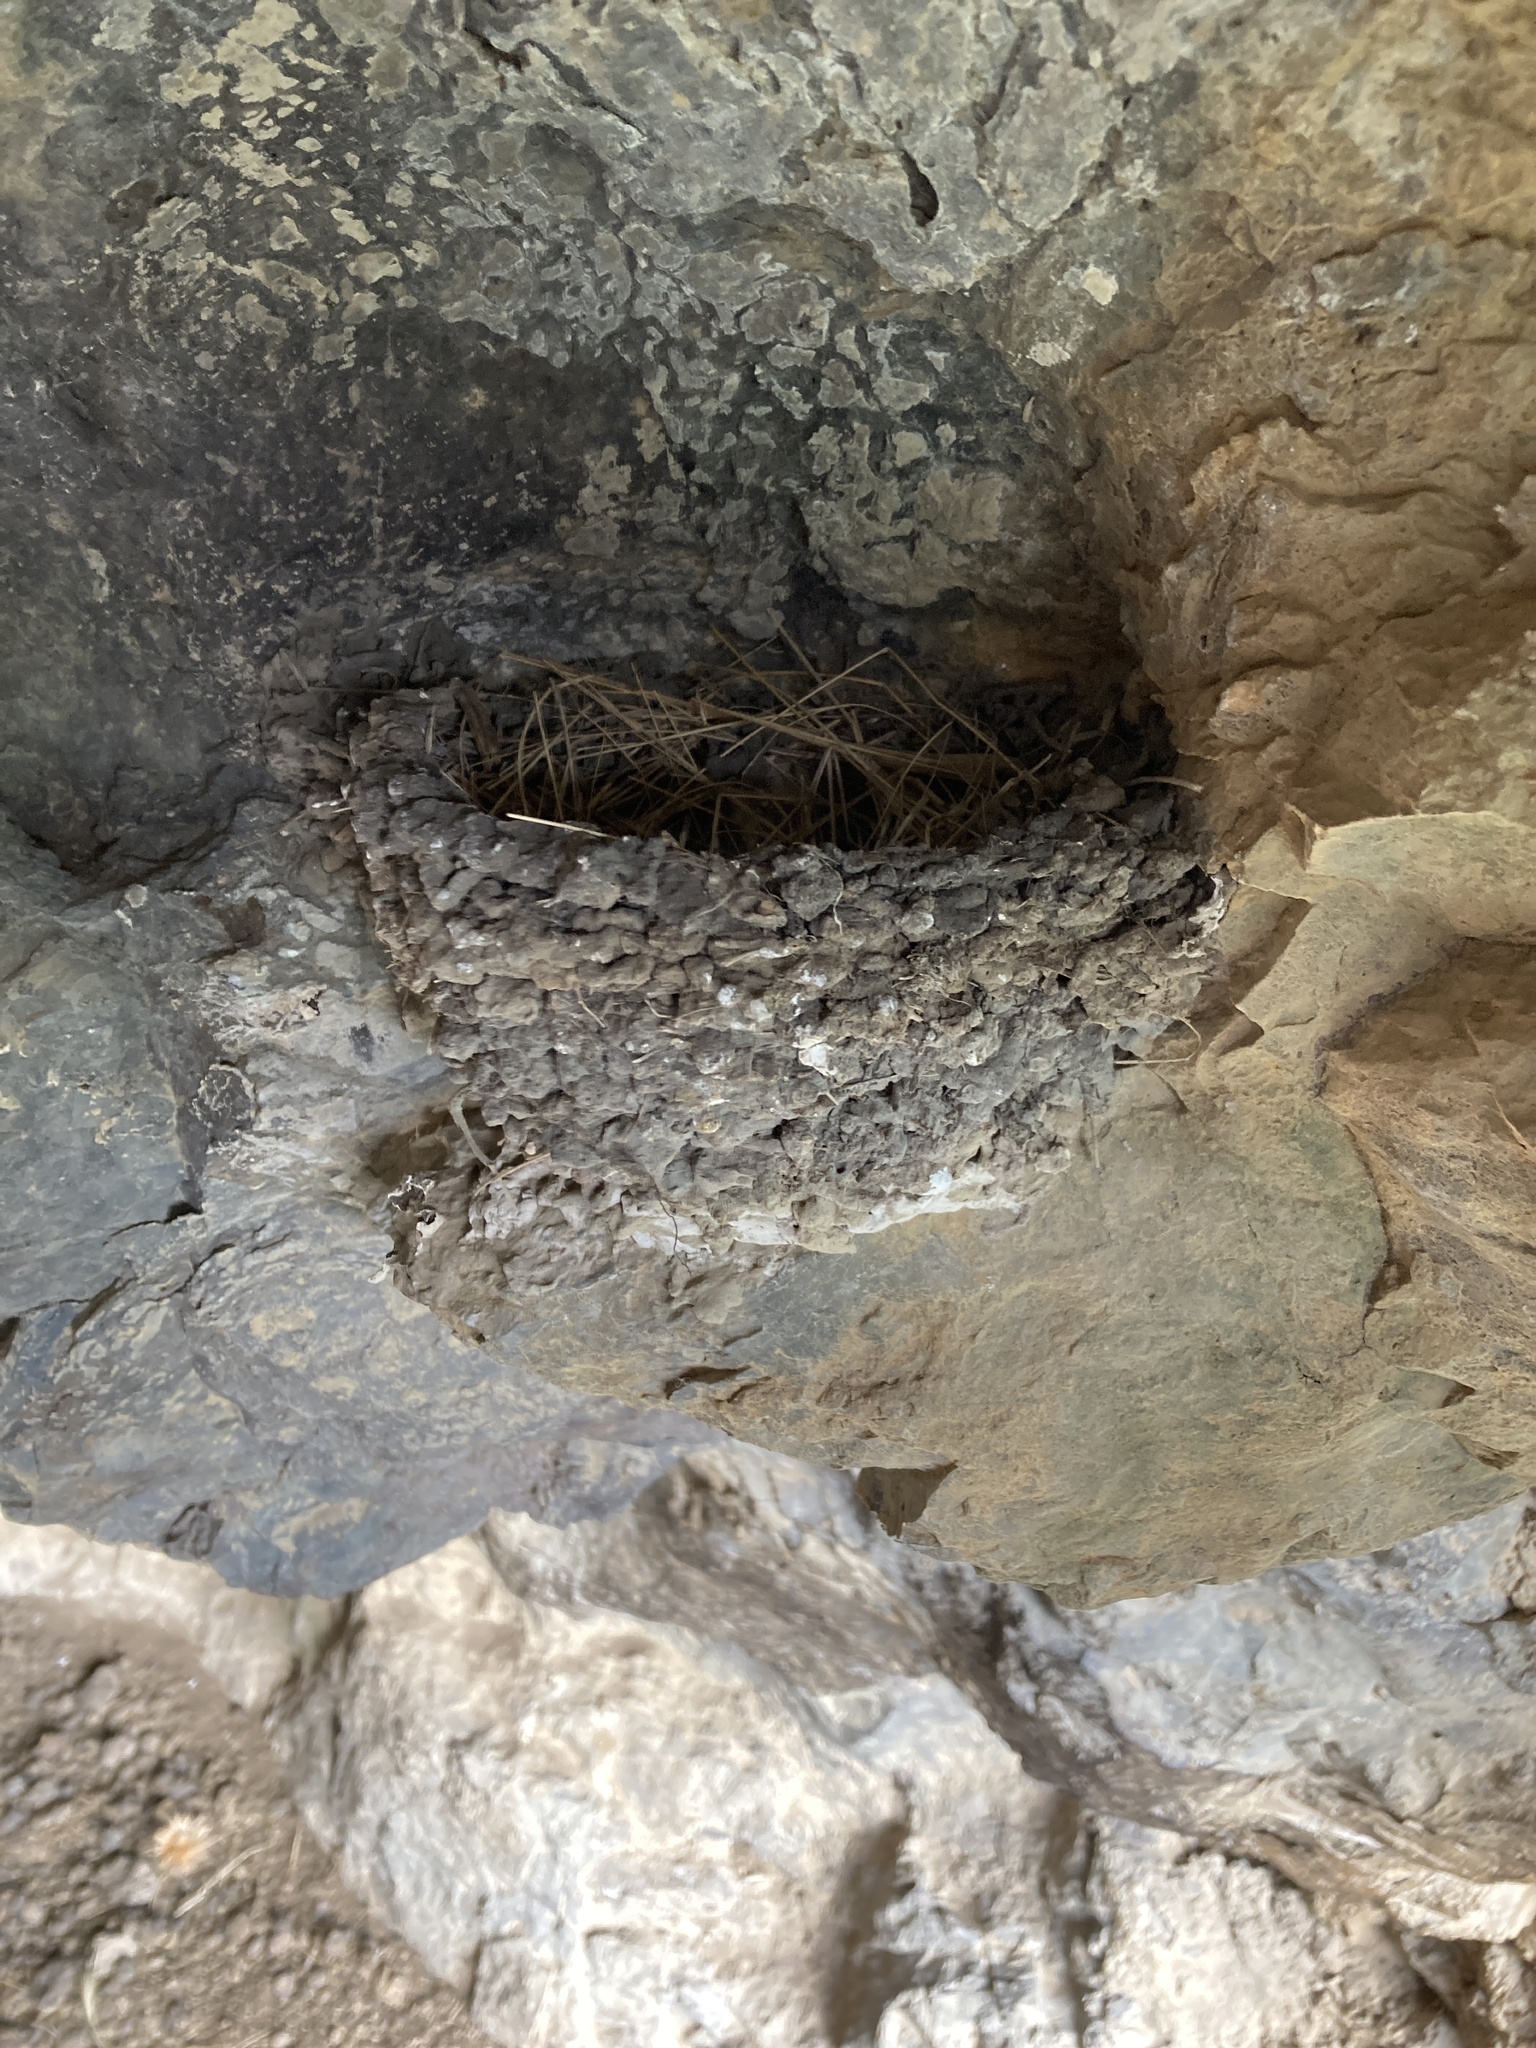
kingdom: Animalia
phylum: Chordata
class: Aves
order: Passeriformes
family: Hirundinidae
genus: Hirundo
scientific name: Hirundo neoxena
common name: Welcome swallow
